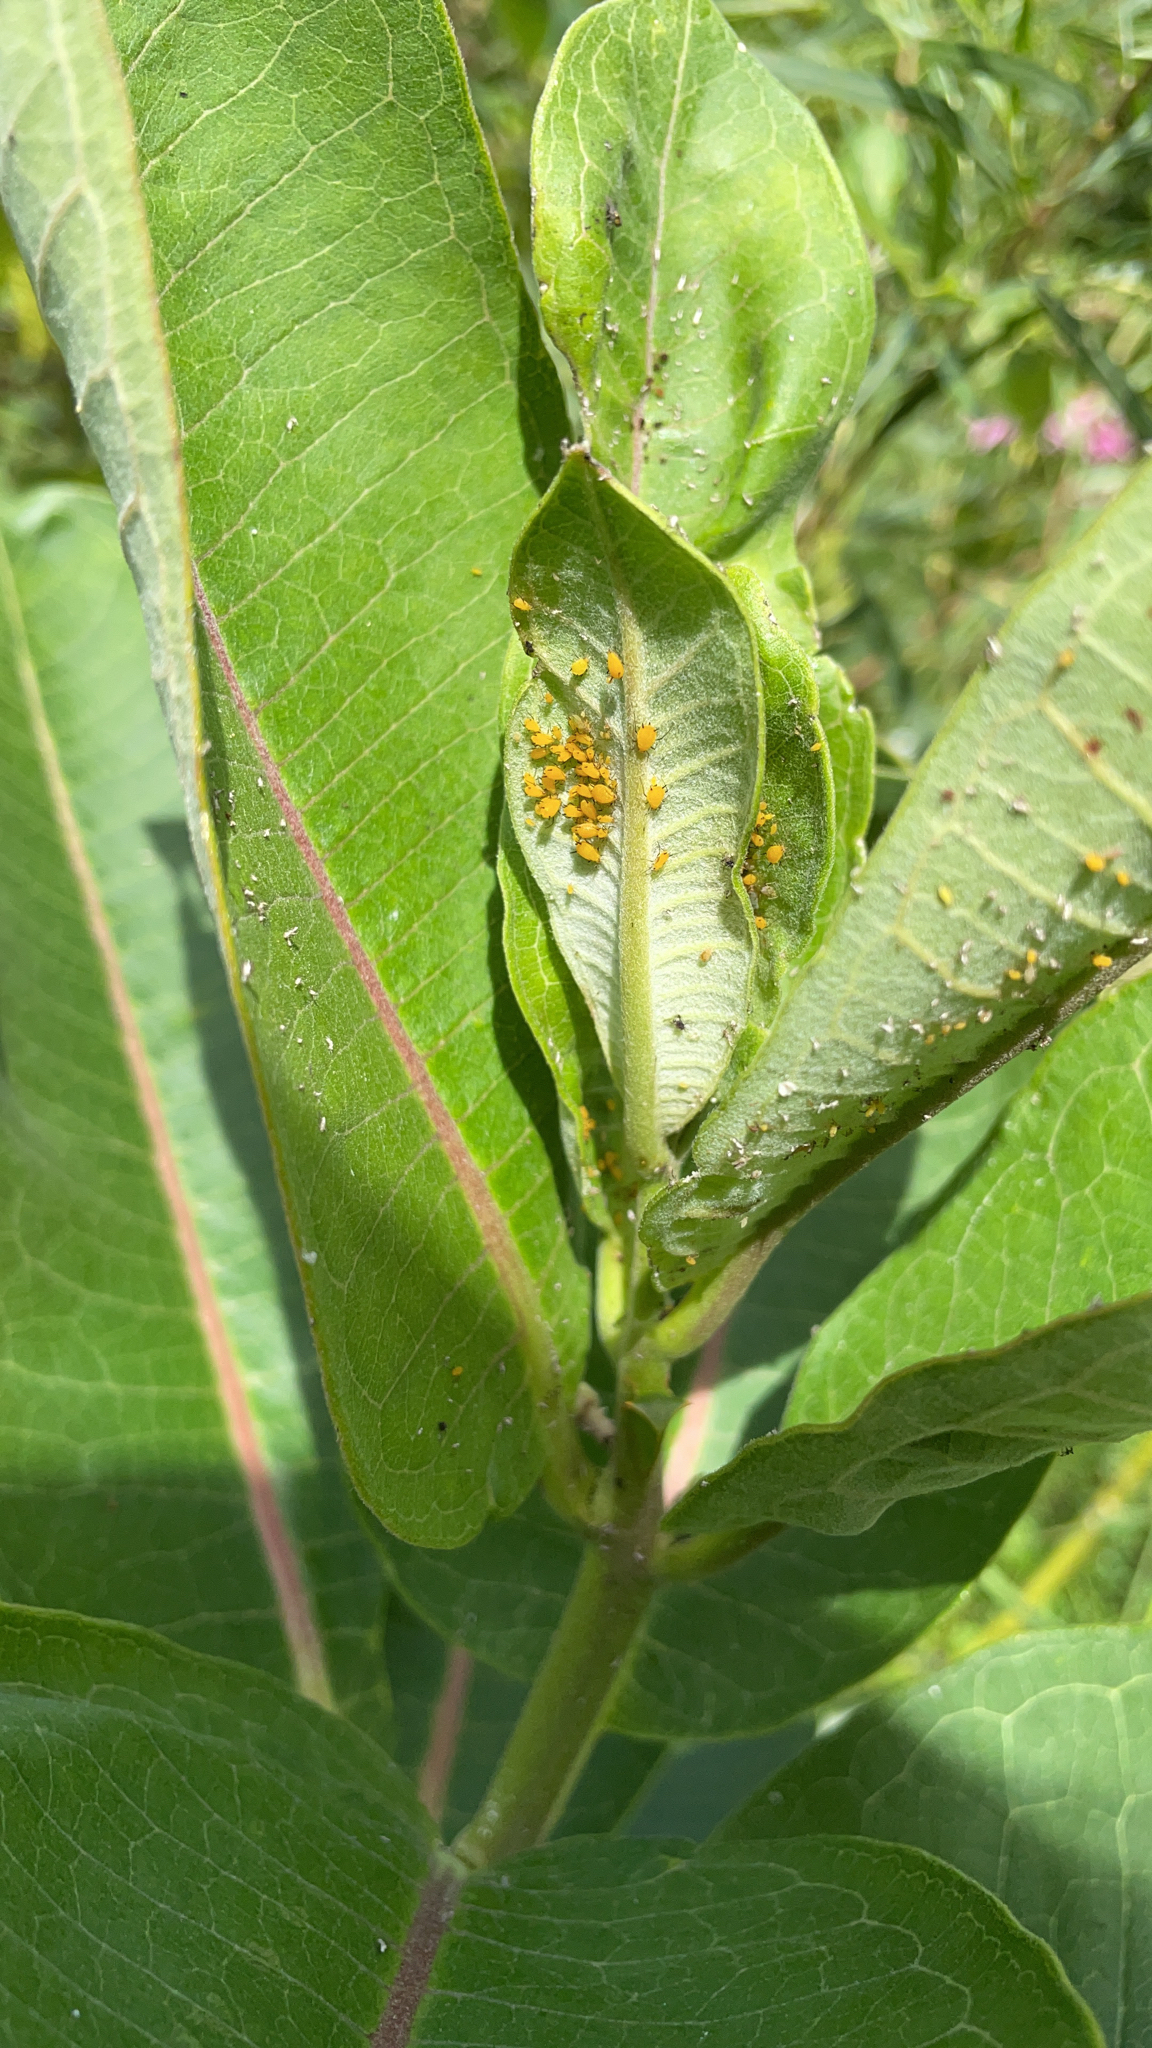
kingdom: Animalia
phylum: Arthropoda
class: Insecta
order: Hemiptera
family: Aphididae
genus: Aphis
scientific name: Aphis nerii
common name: Oleander aphid
